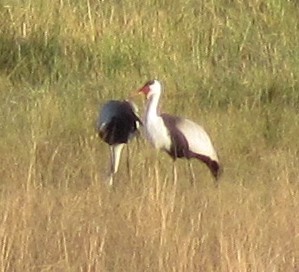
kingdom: Animalia
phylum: Chordata
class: Aves
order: Gruiformes
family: Gruidae
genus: Bugeranus
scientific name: Bugeranus carunculatus
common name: Wattled crane
